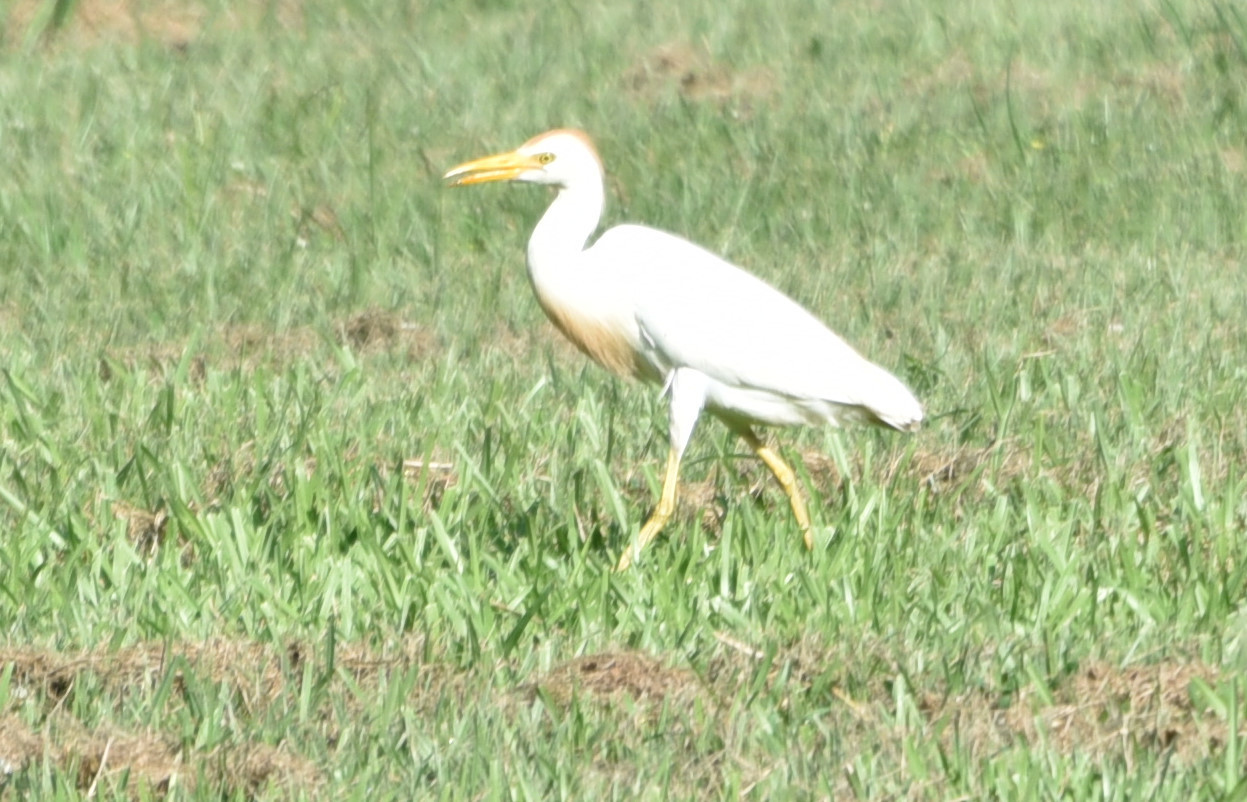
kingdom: Animalia
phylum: Chordata
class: Aves
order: Pelecaniformes
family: Ardeidae
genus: Bubulcus
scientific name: Bubulcus ibis
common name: Cattle egret
